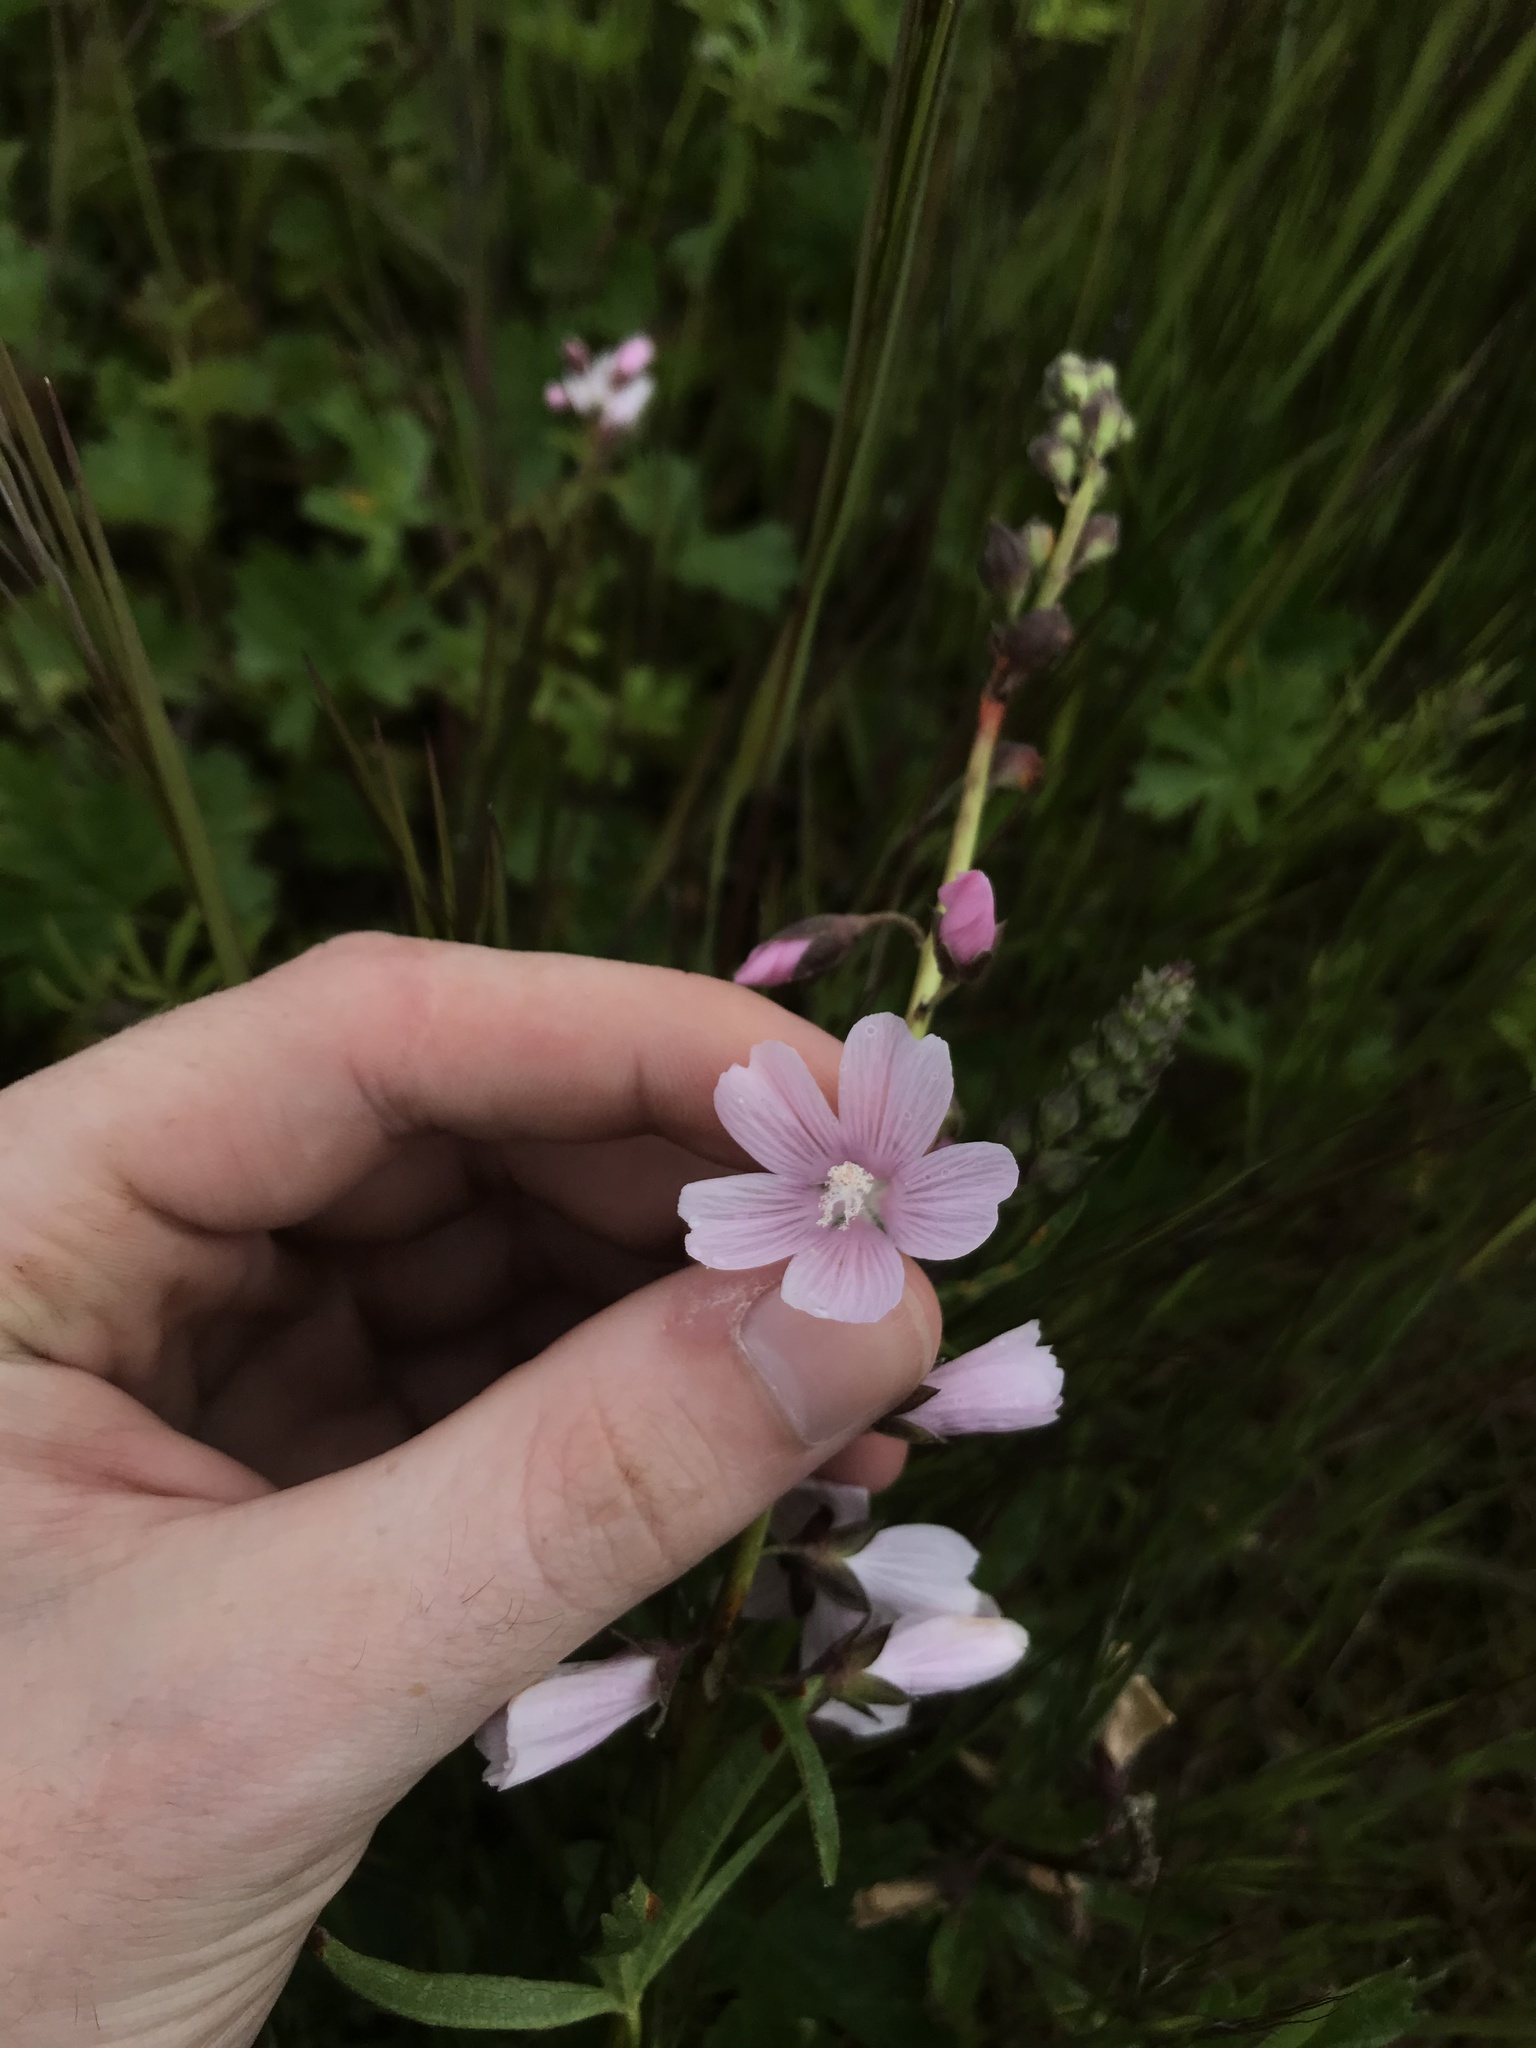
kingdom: Plantae
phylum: Tracheophyta
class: Magnoliopsida
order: Malvales
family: Malvaceae
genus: Sidalcea
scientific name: Sidalcea asprella
